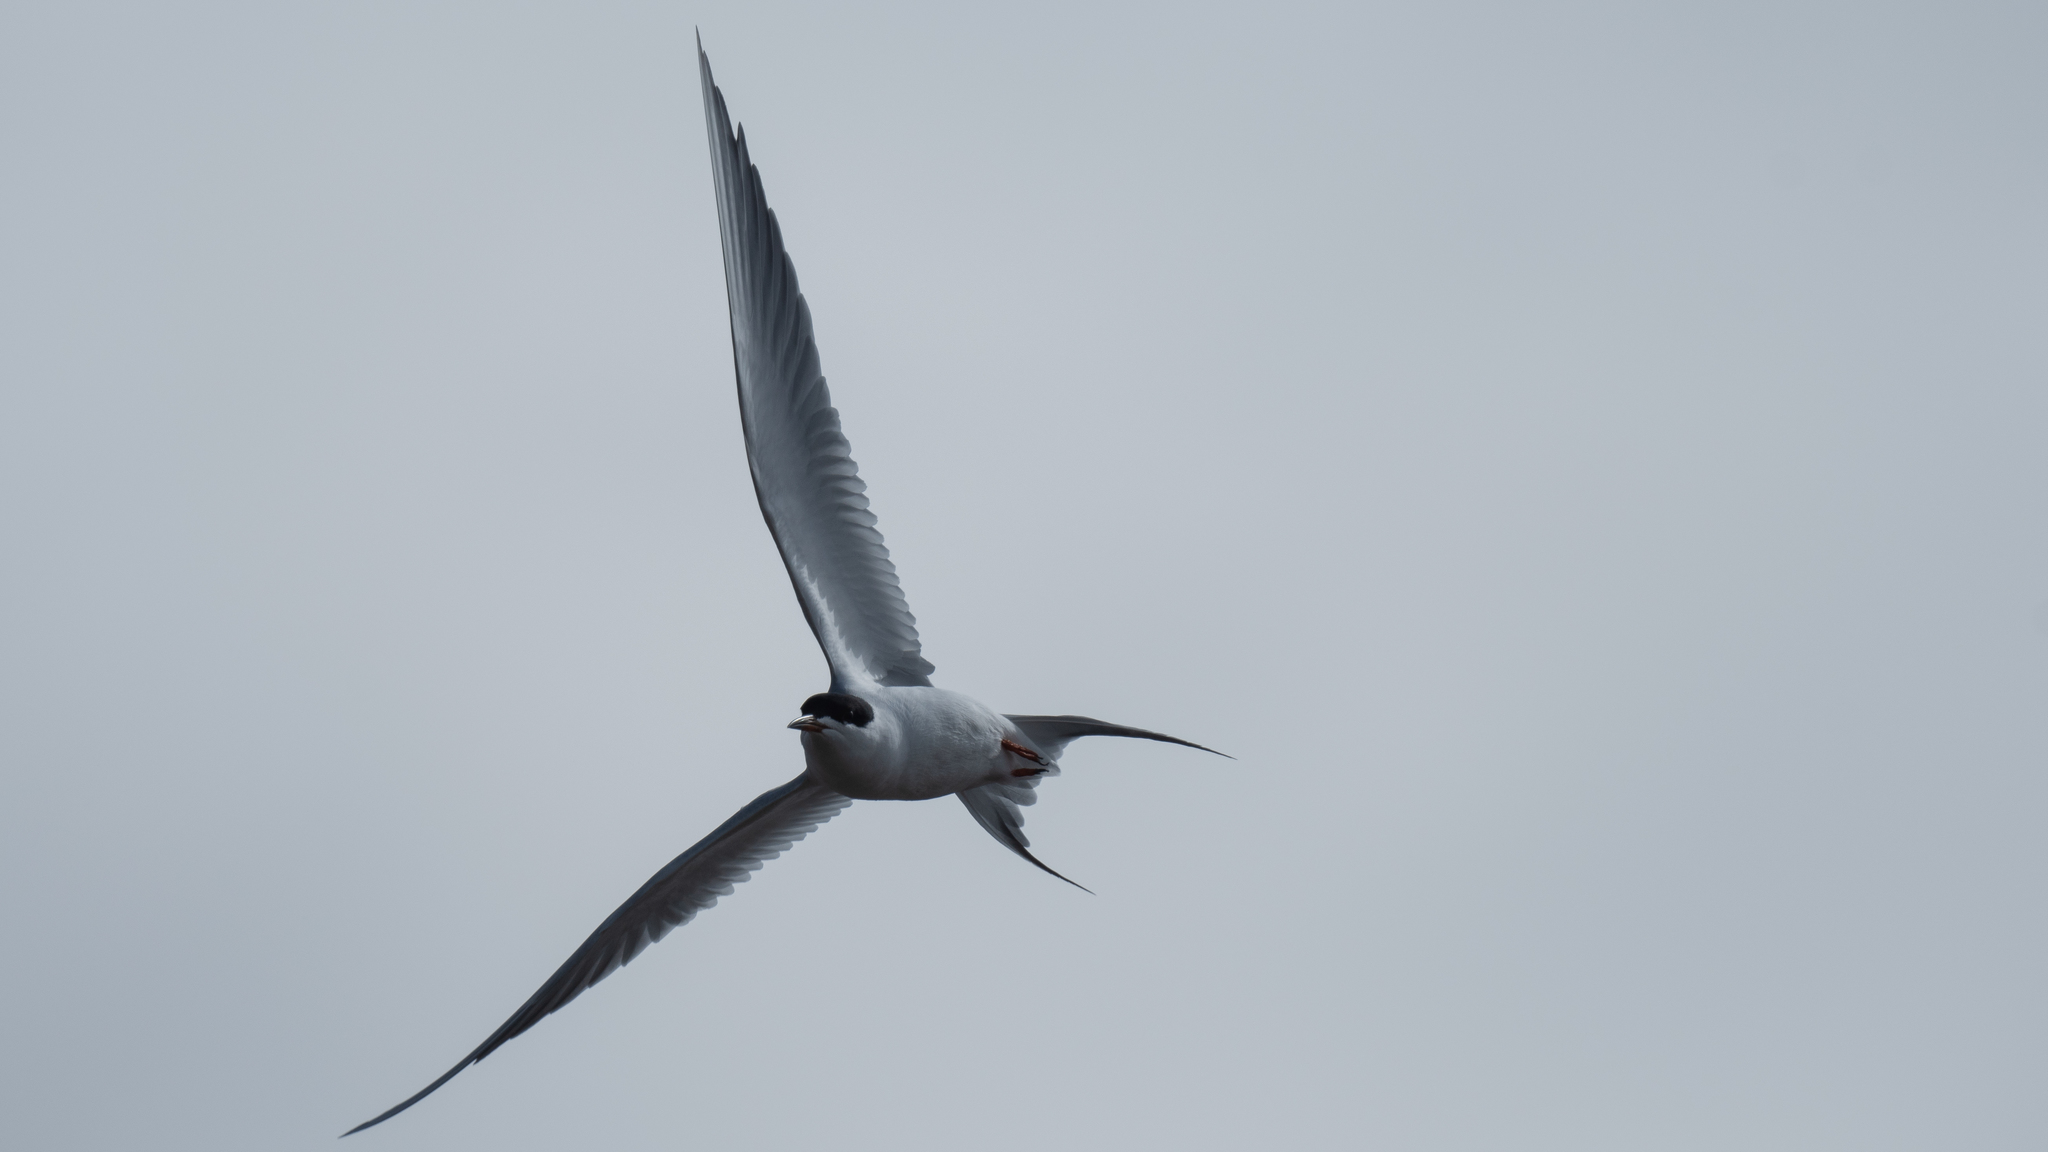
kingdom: Animalia
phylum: Chordata
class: Aves
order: Charadriiformes
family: Laridae
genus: Sterna
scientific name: Sterna forsteri
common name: Forster's tern
